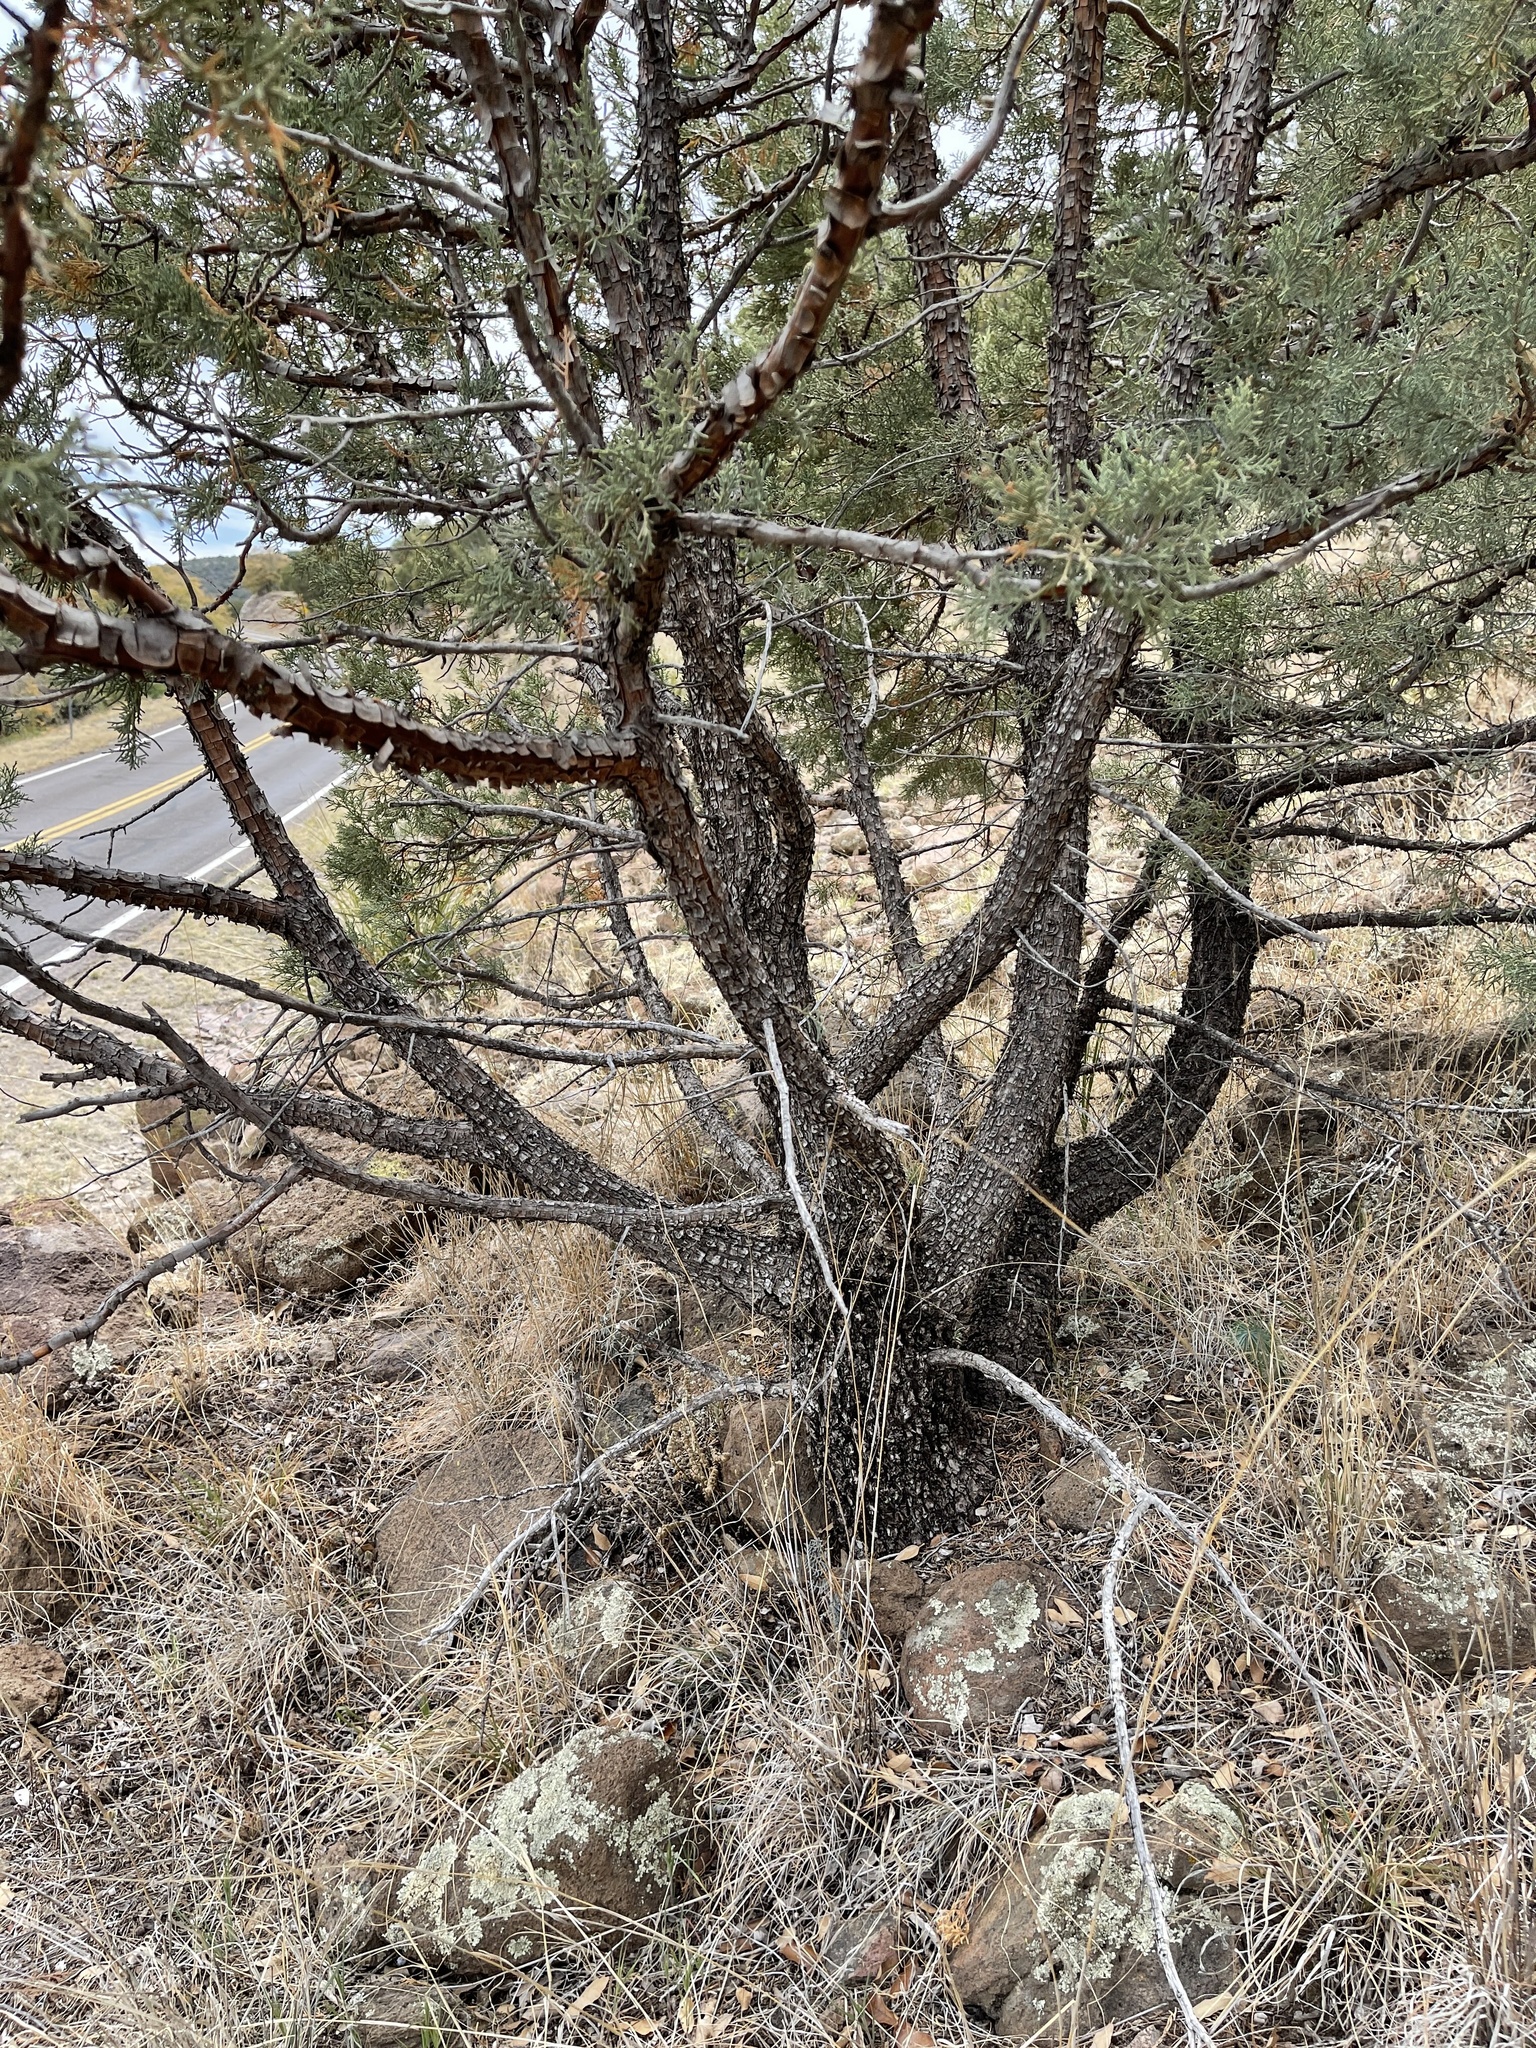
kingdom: Plantae
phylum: Tracheophyta
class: Pinopsida
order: Pinales
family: Cupressaceae
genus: Juniperus
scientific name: Juniperus deppeana
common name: Alligator juniper
